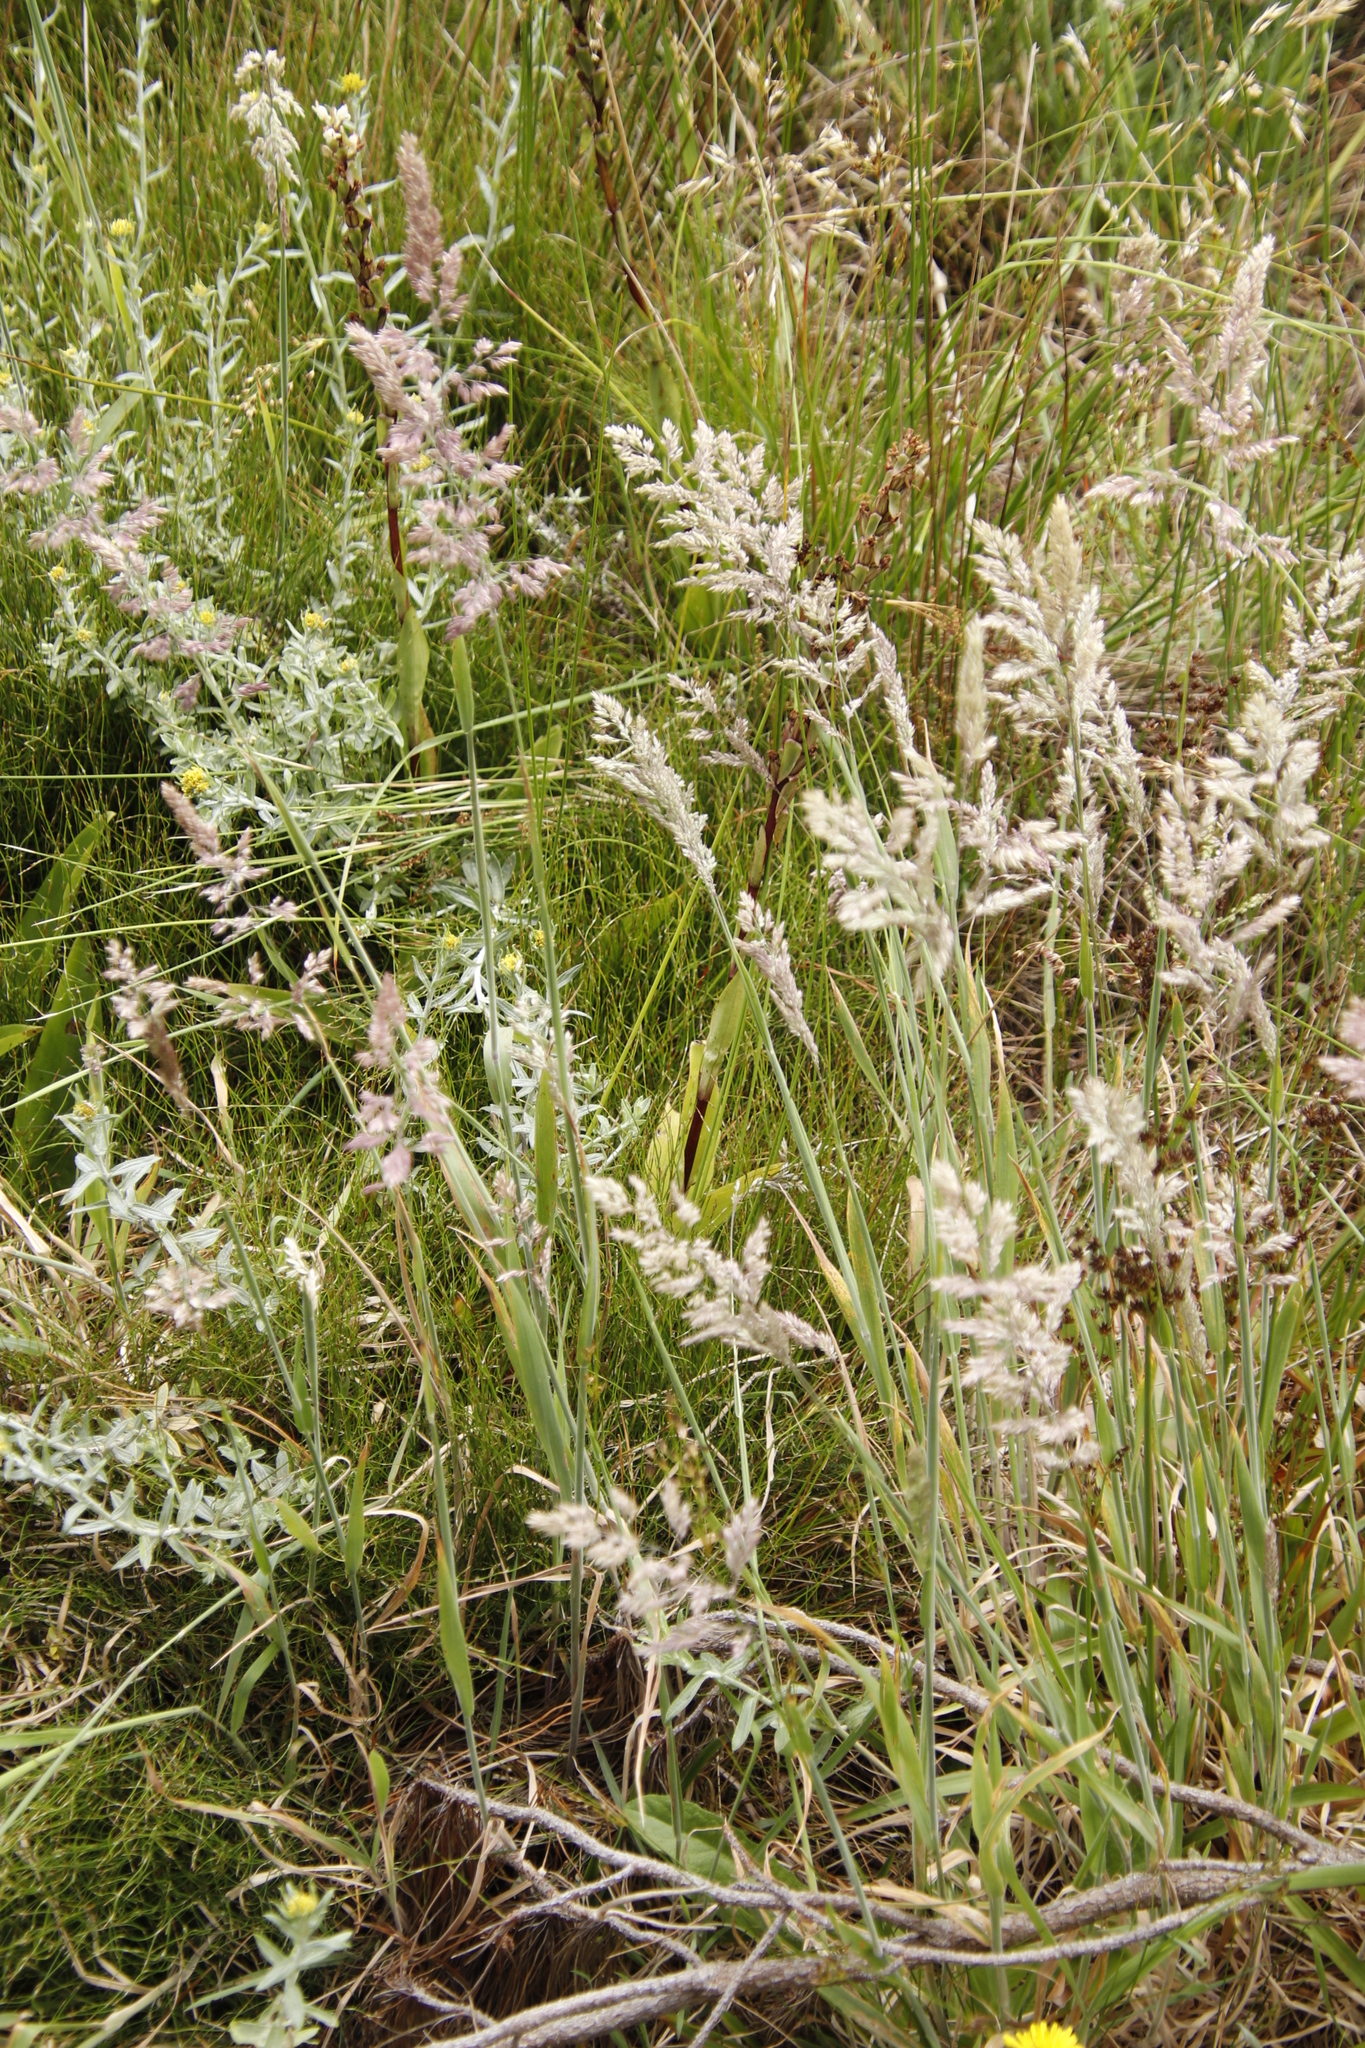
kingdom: Plantae
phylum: Tracheophyta
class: Liliopsida
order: Poales
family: Poaceae
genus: Holcus
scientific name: Holcus lanatus
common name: Yorkshire-fog
